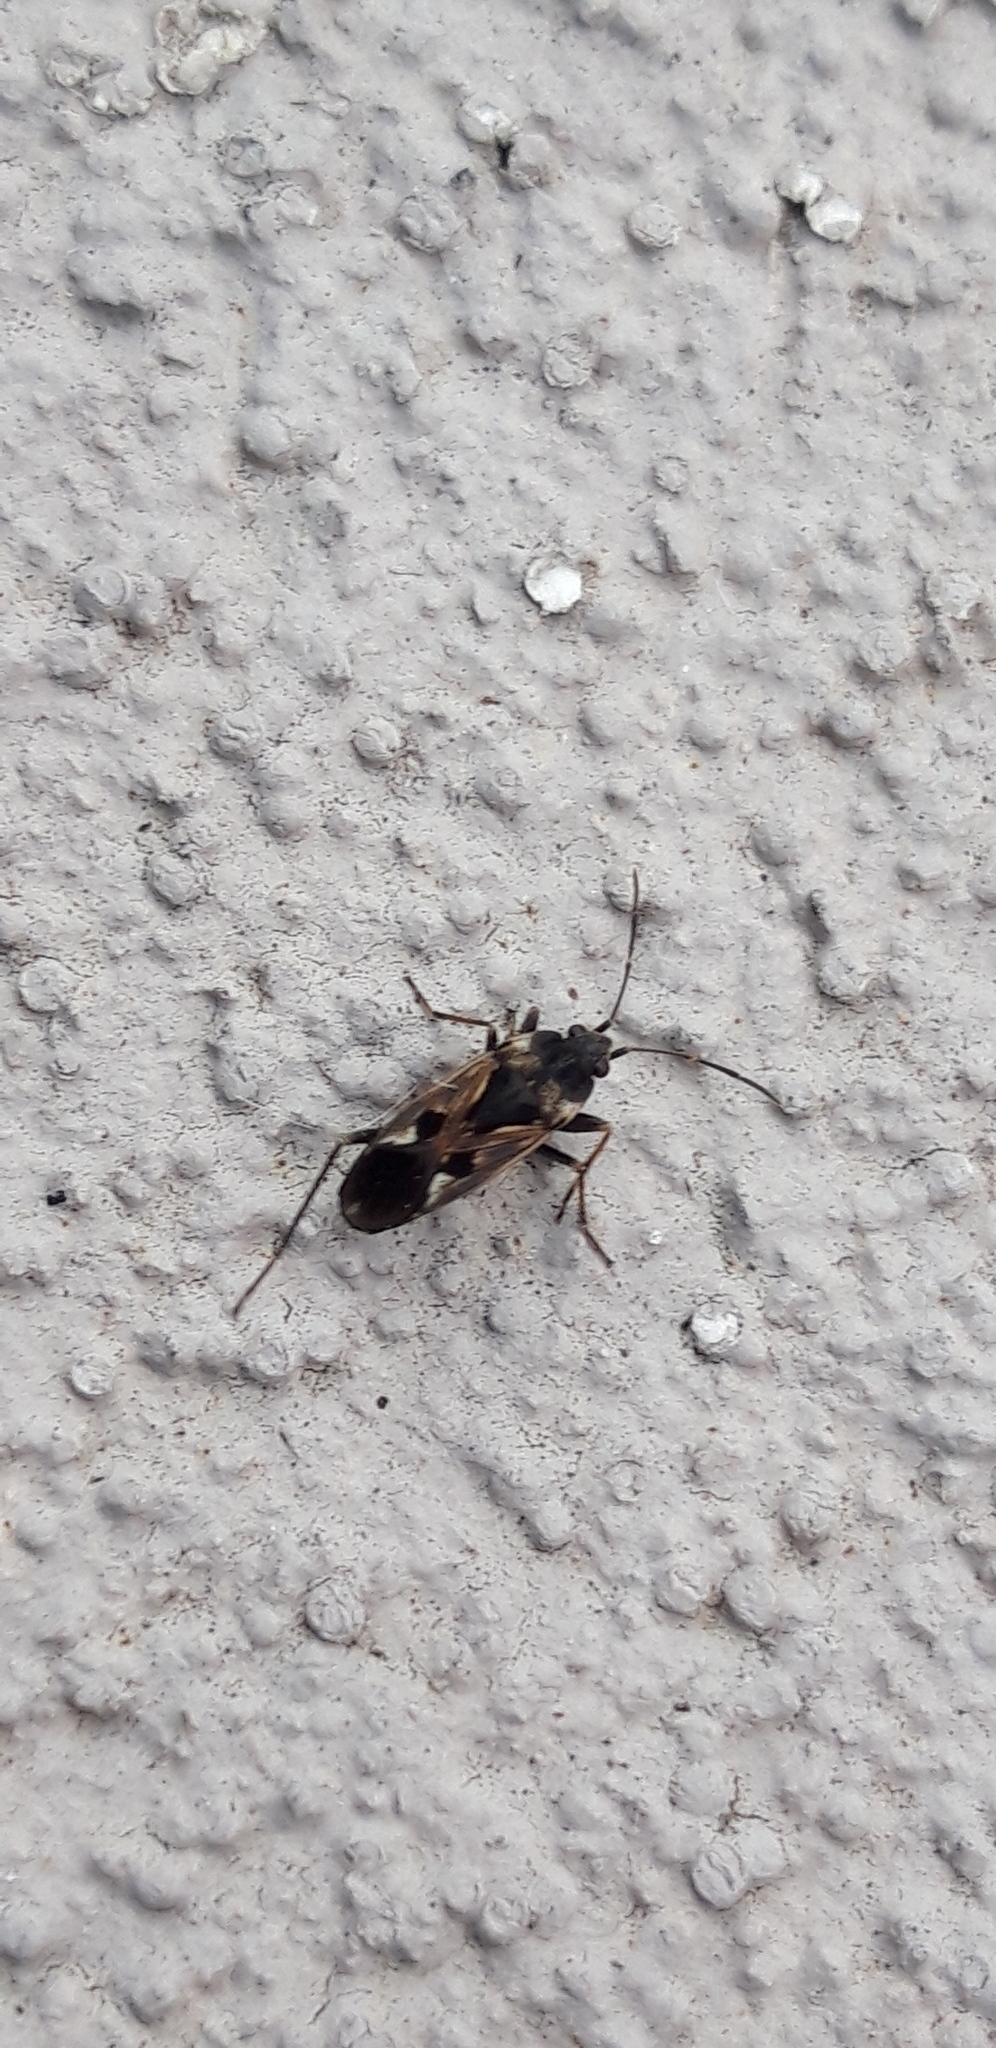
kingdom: Animalia
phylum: Arthropoda
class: Insecta
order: Hemiptera
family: Rhyparochromidae
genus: Rhyparochromus
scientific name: Rhyparochromus vulgaris
